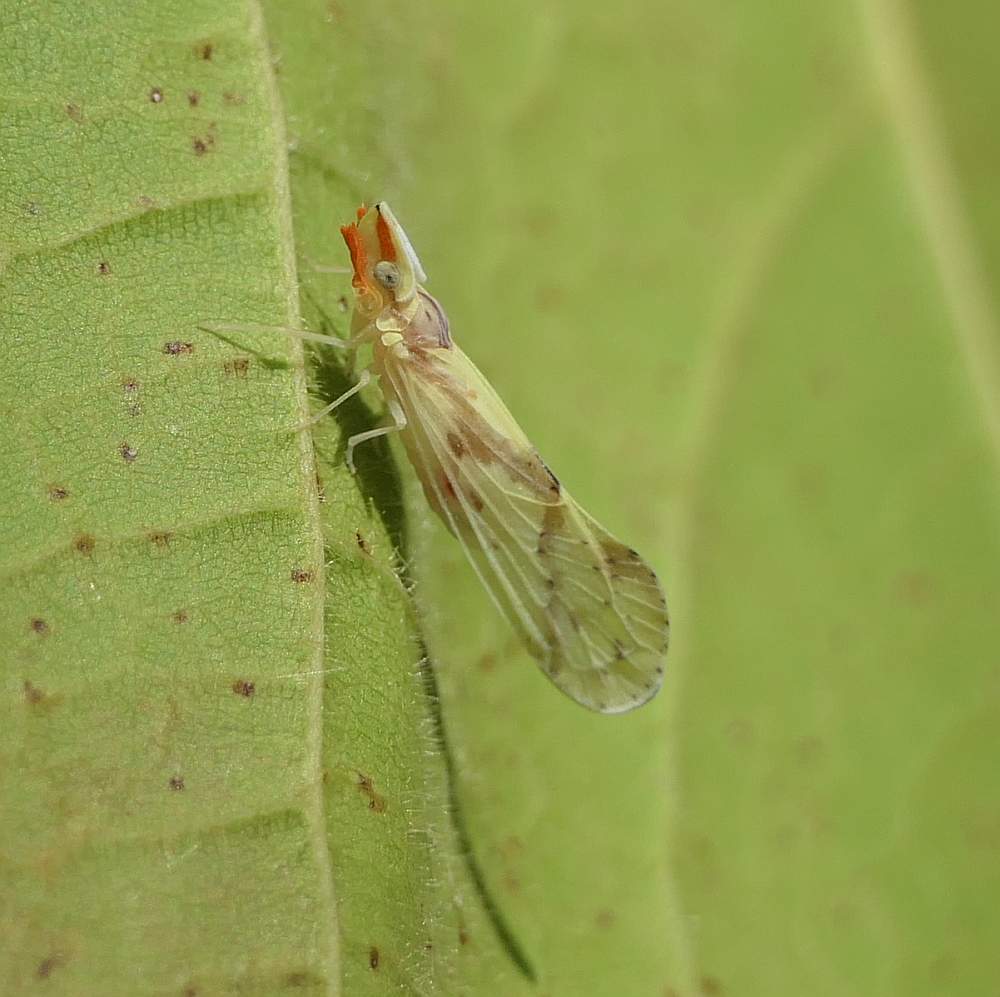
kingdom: Animalia
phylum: Arthropoda
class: Insecta
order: Hemiptera
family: Derbidae
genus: Otiocerus
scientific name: Otiocerus wolfii
